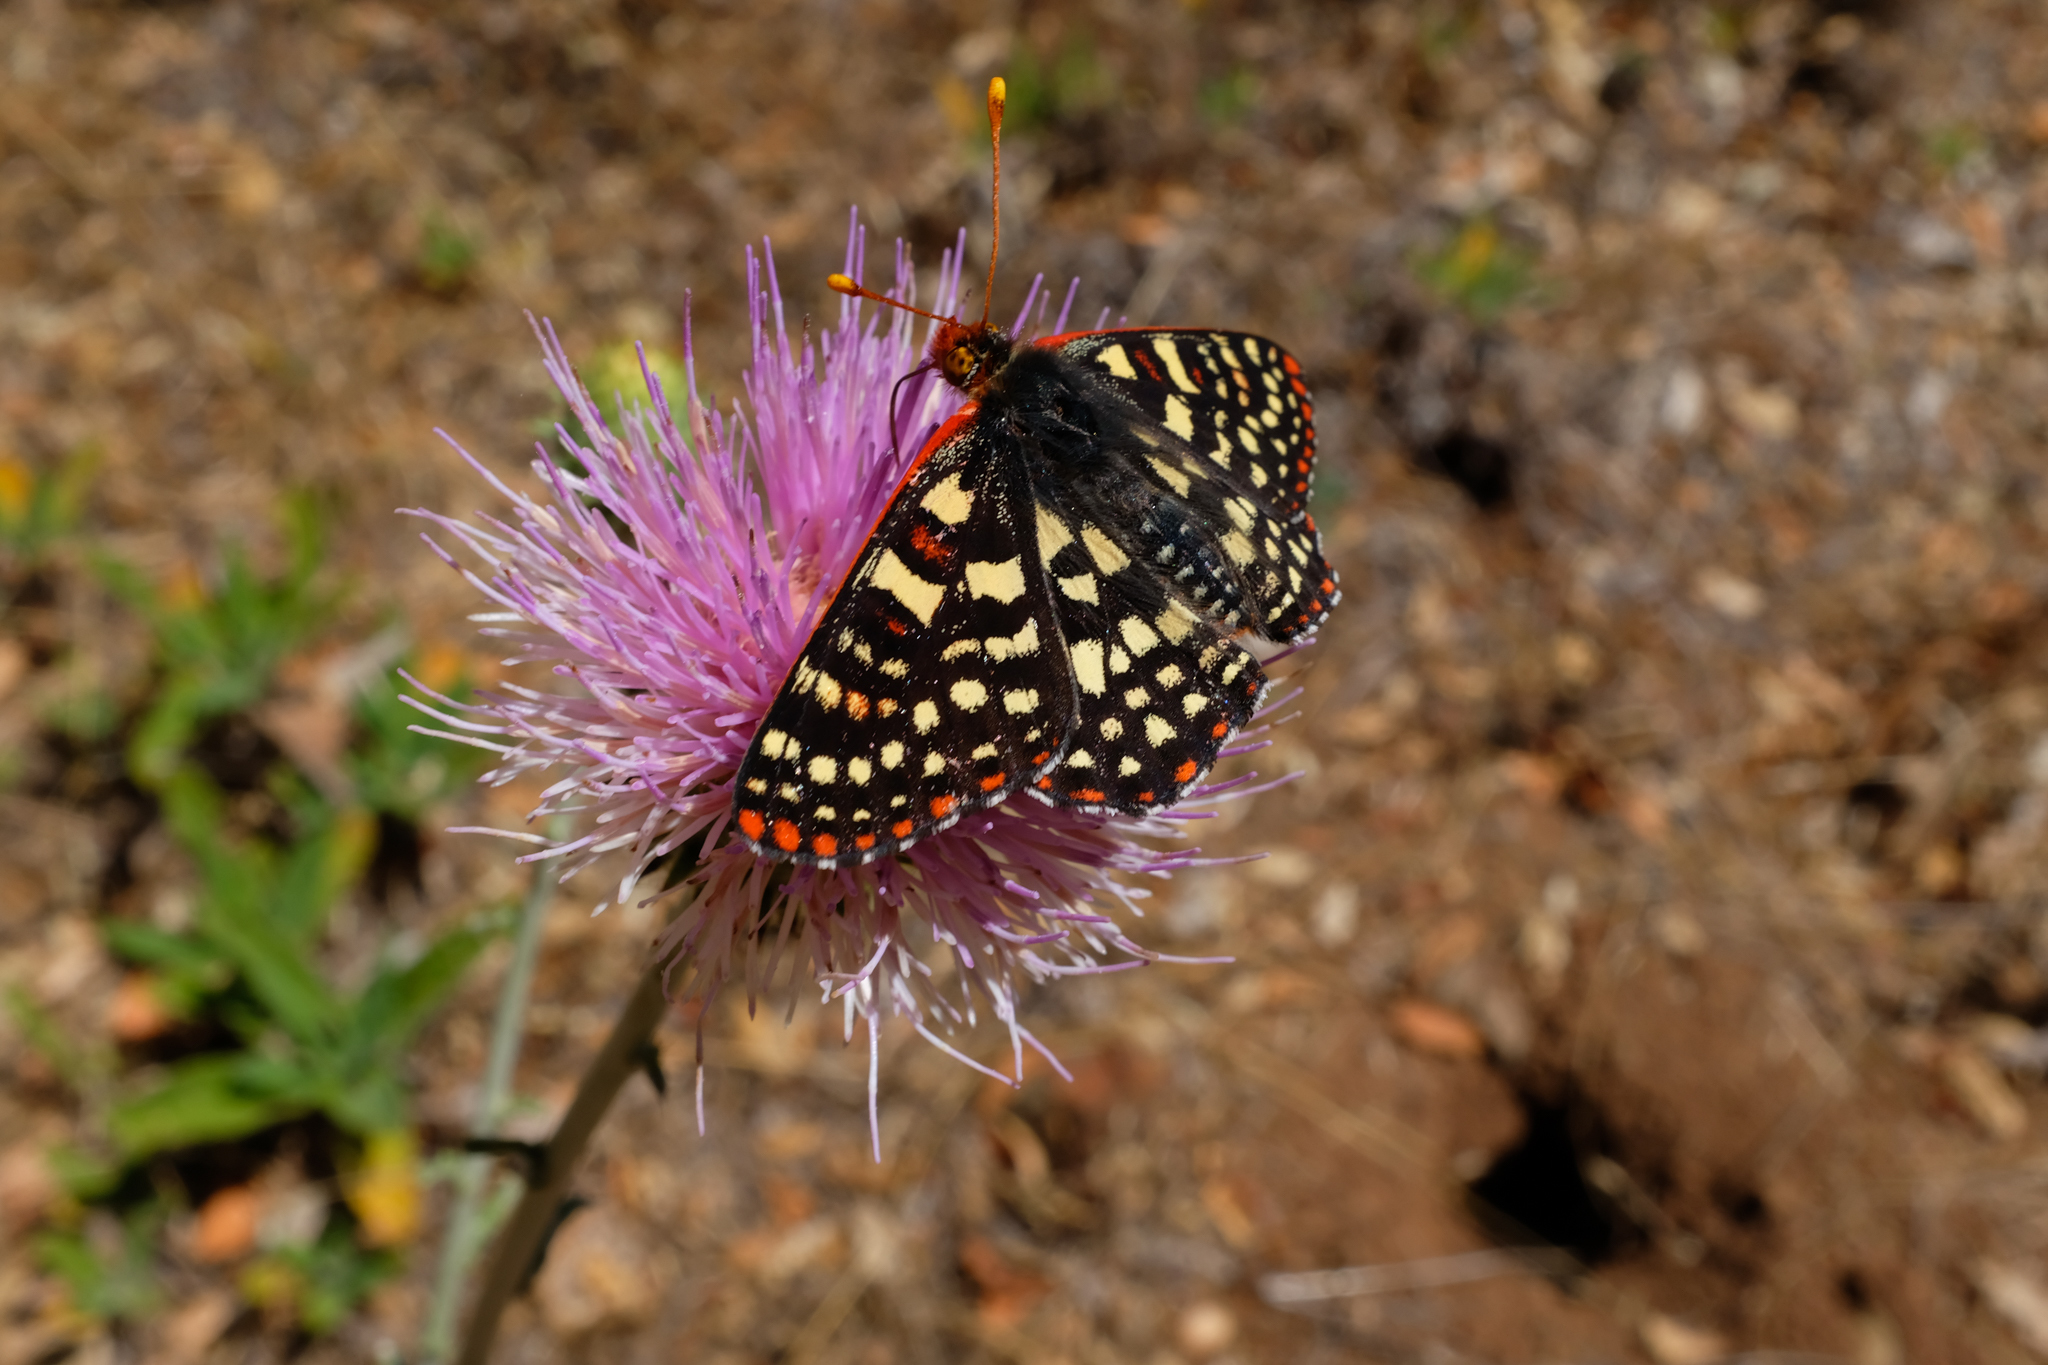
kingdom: Plantae
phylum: Tracheophyta
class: Magnoliopsida
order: Asterales
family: Asteraceae
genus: Cirsium
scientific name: Cirsium occidentale
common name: Western thistle
